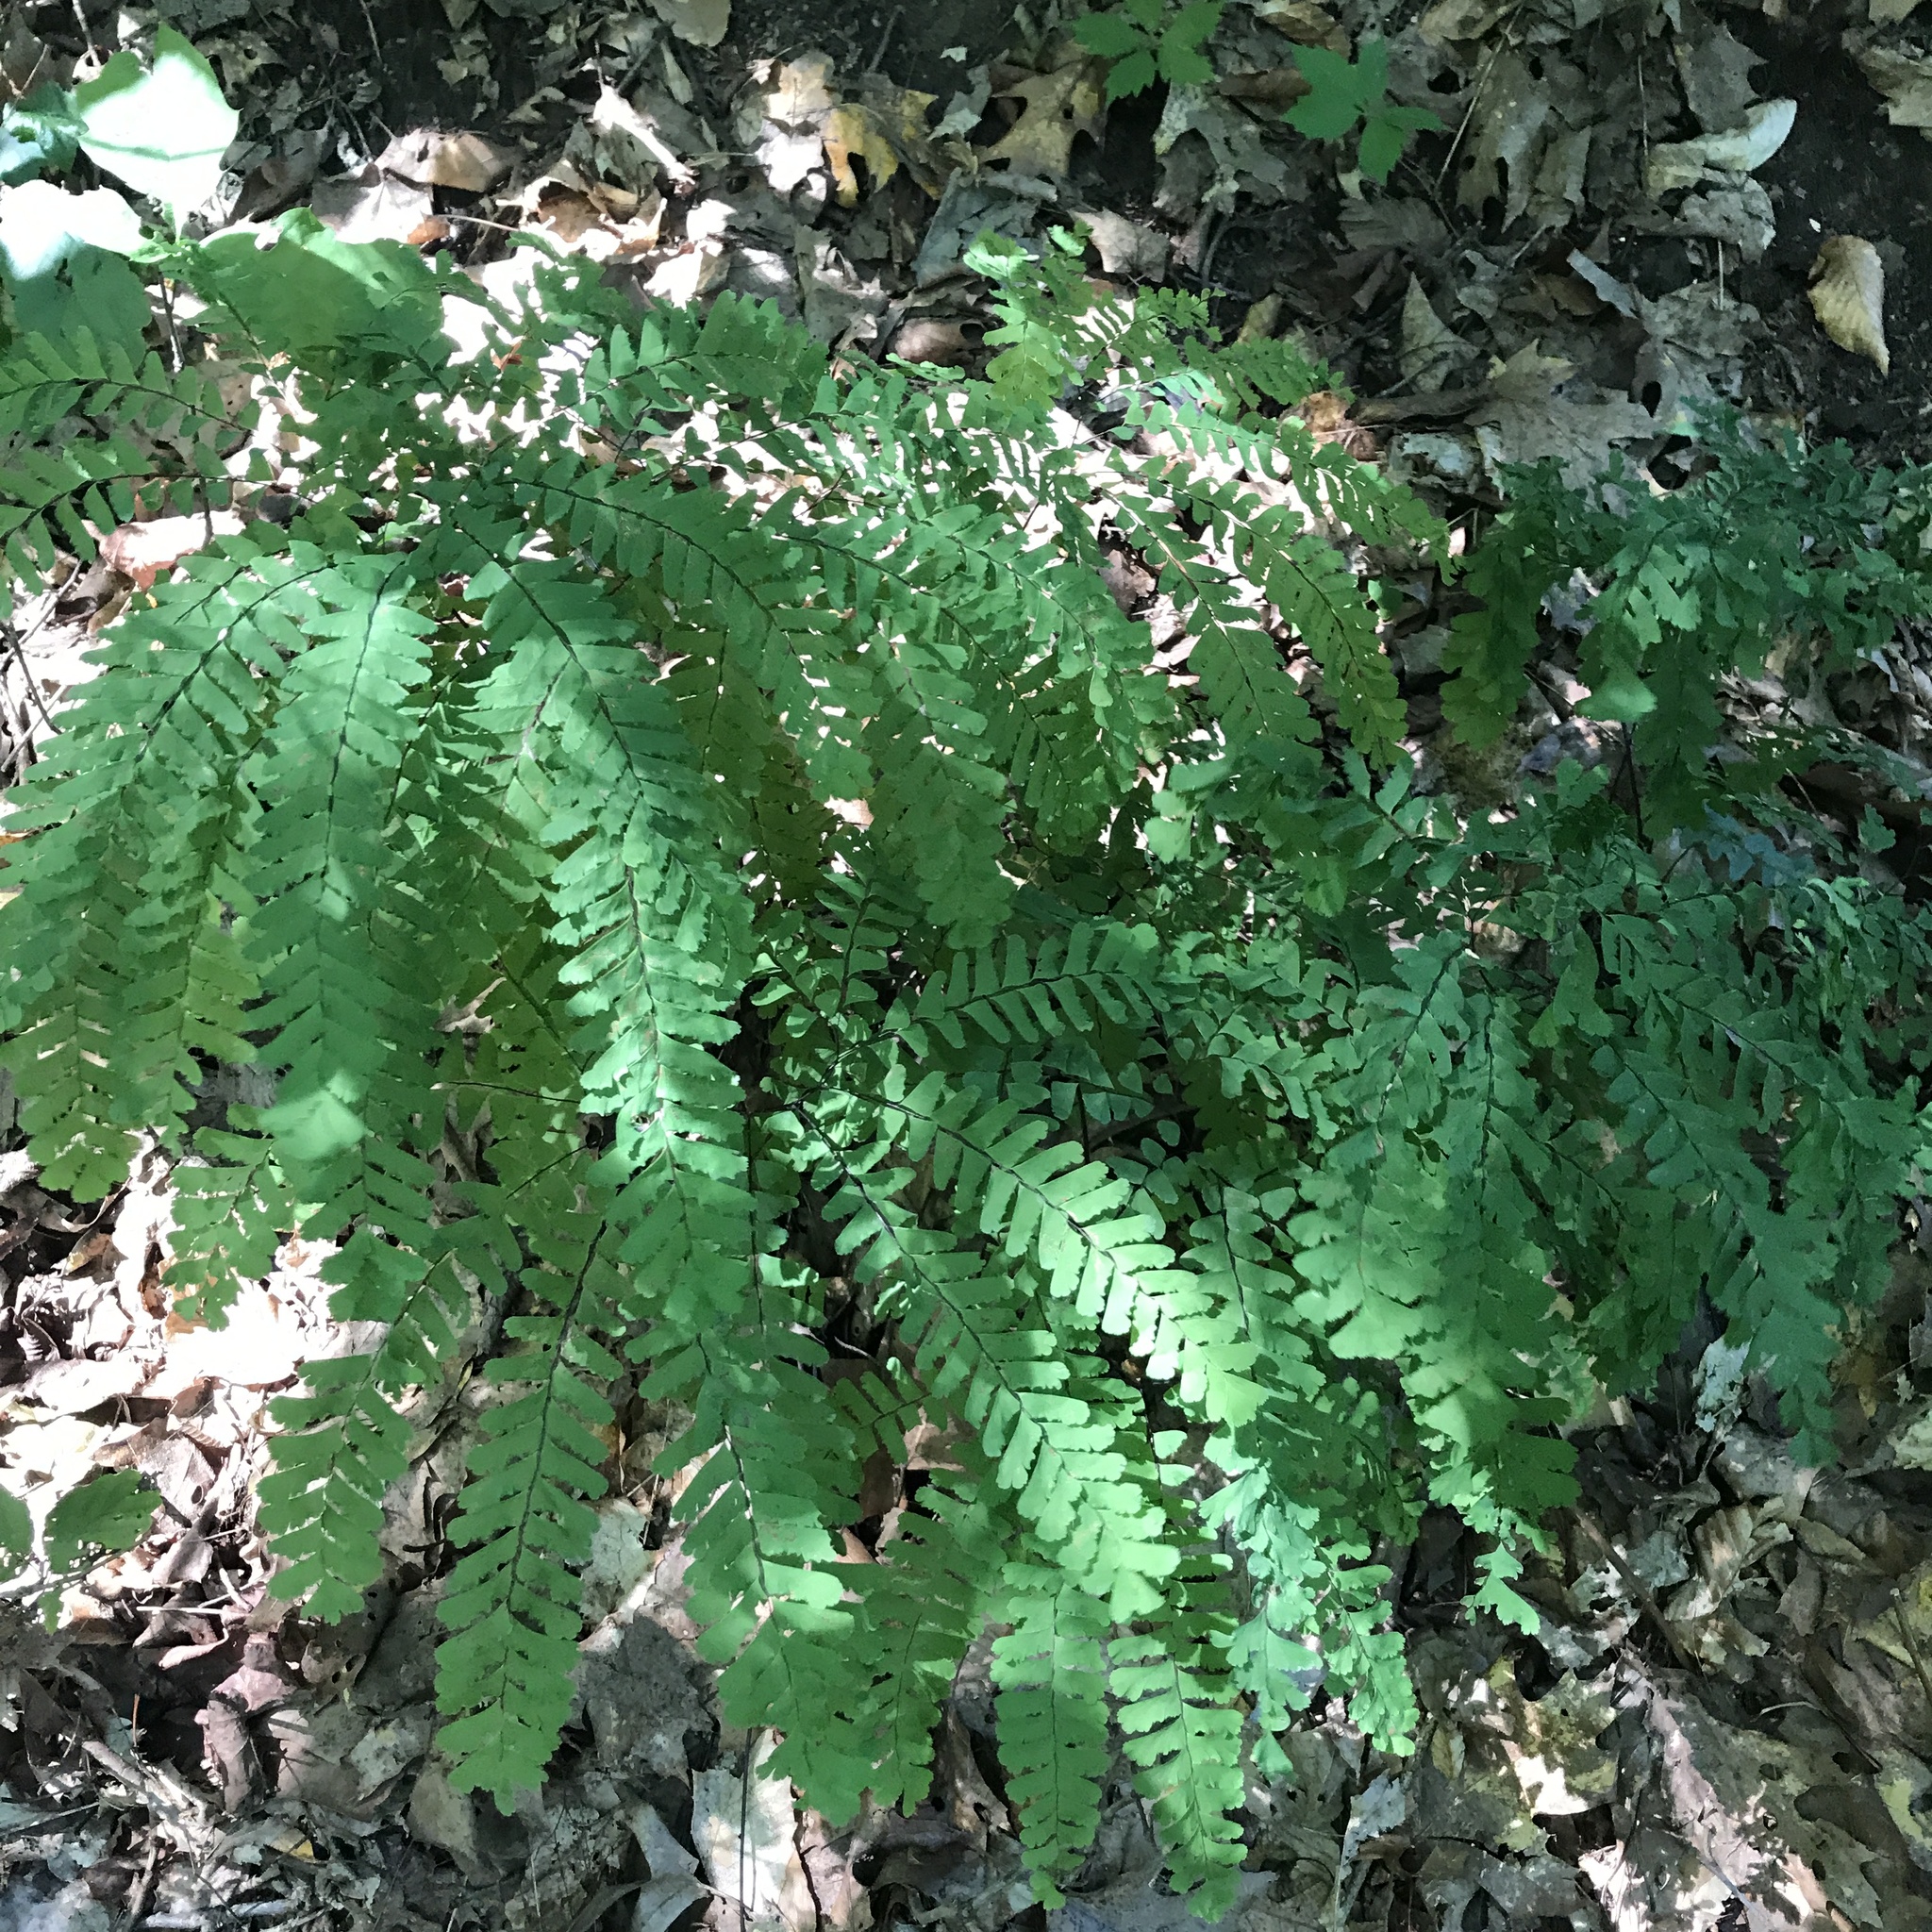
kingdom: Plantae
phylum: Tracheophyta
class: Polypodiopsida
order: Polypodiales
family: Pteridaceae
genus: Adiantum
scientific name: Adiantum pedatum
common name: Five-finger fern
